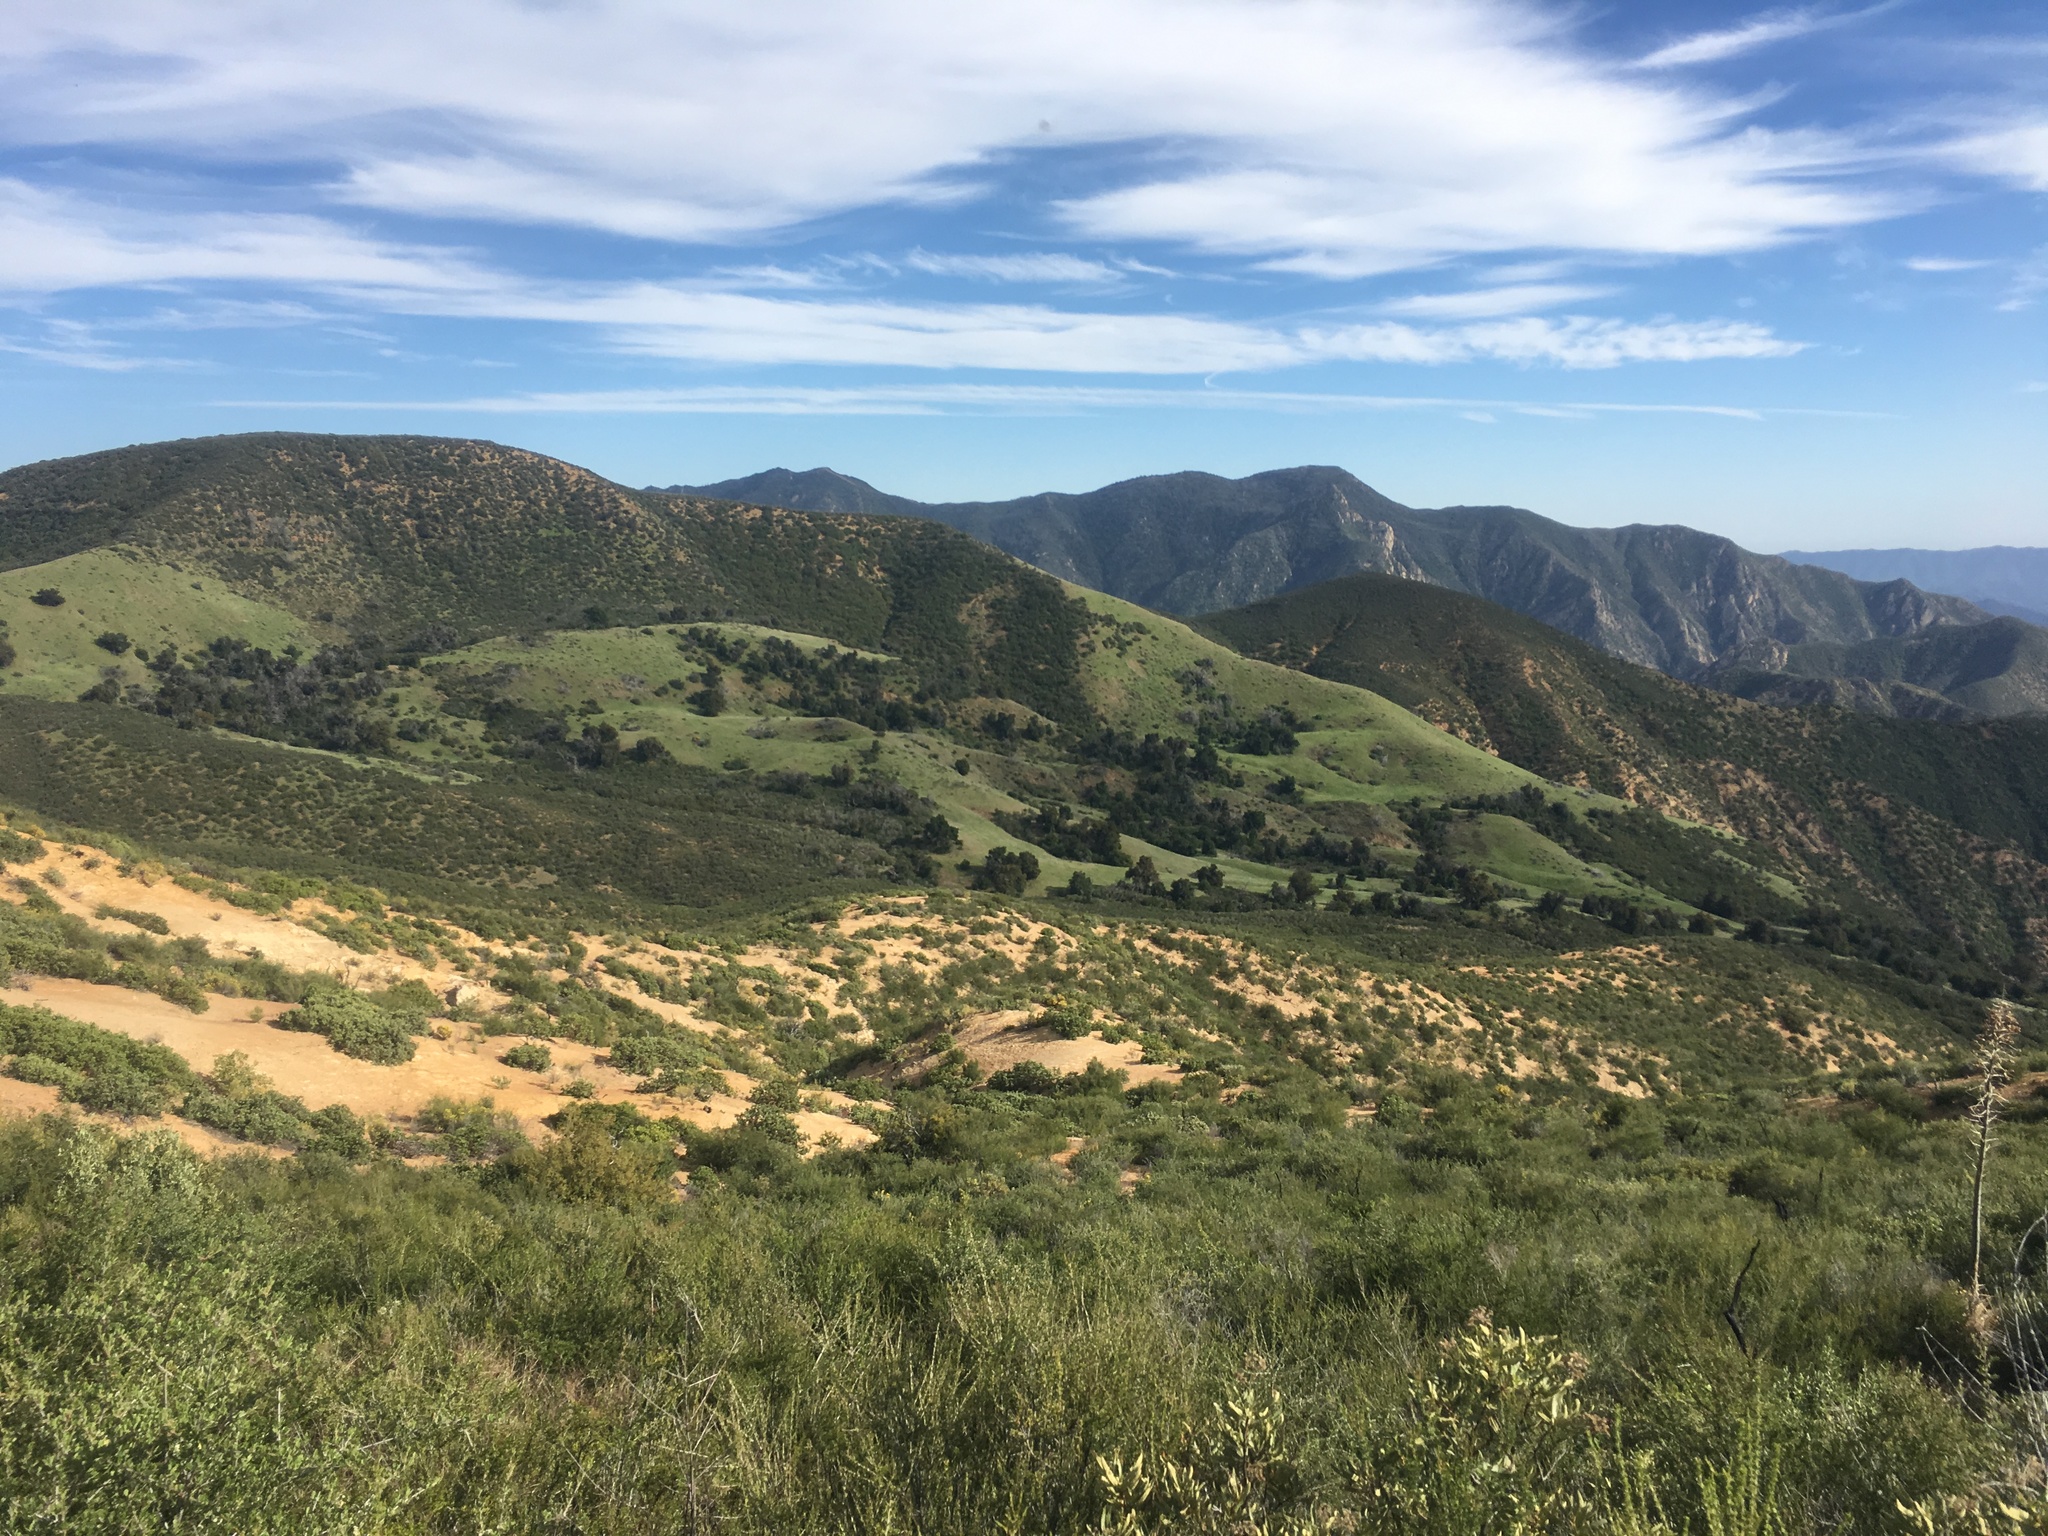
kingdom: Plantae
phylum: Tracheophyta
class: Magnoliopsida
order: Rosales
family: Rosaceae
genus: Adenostoma
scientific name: Adenostoma fasciculatum
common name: Chamise
